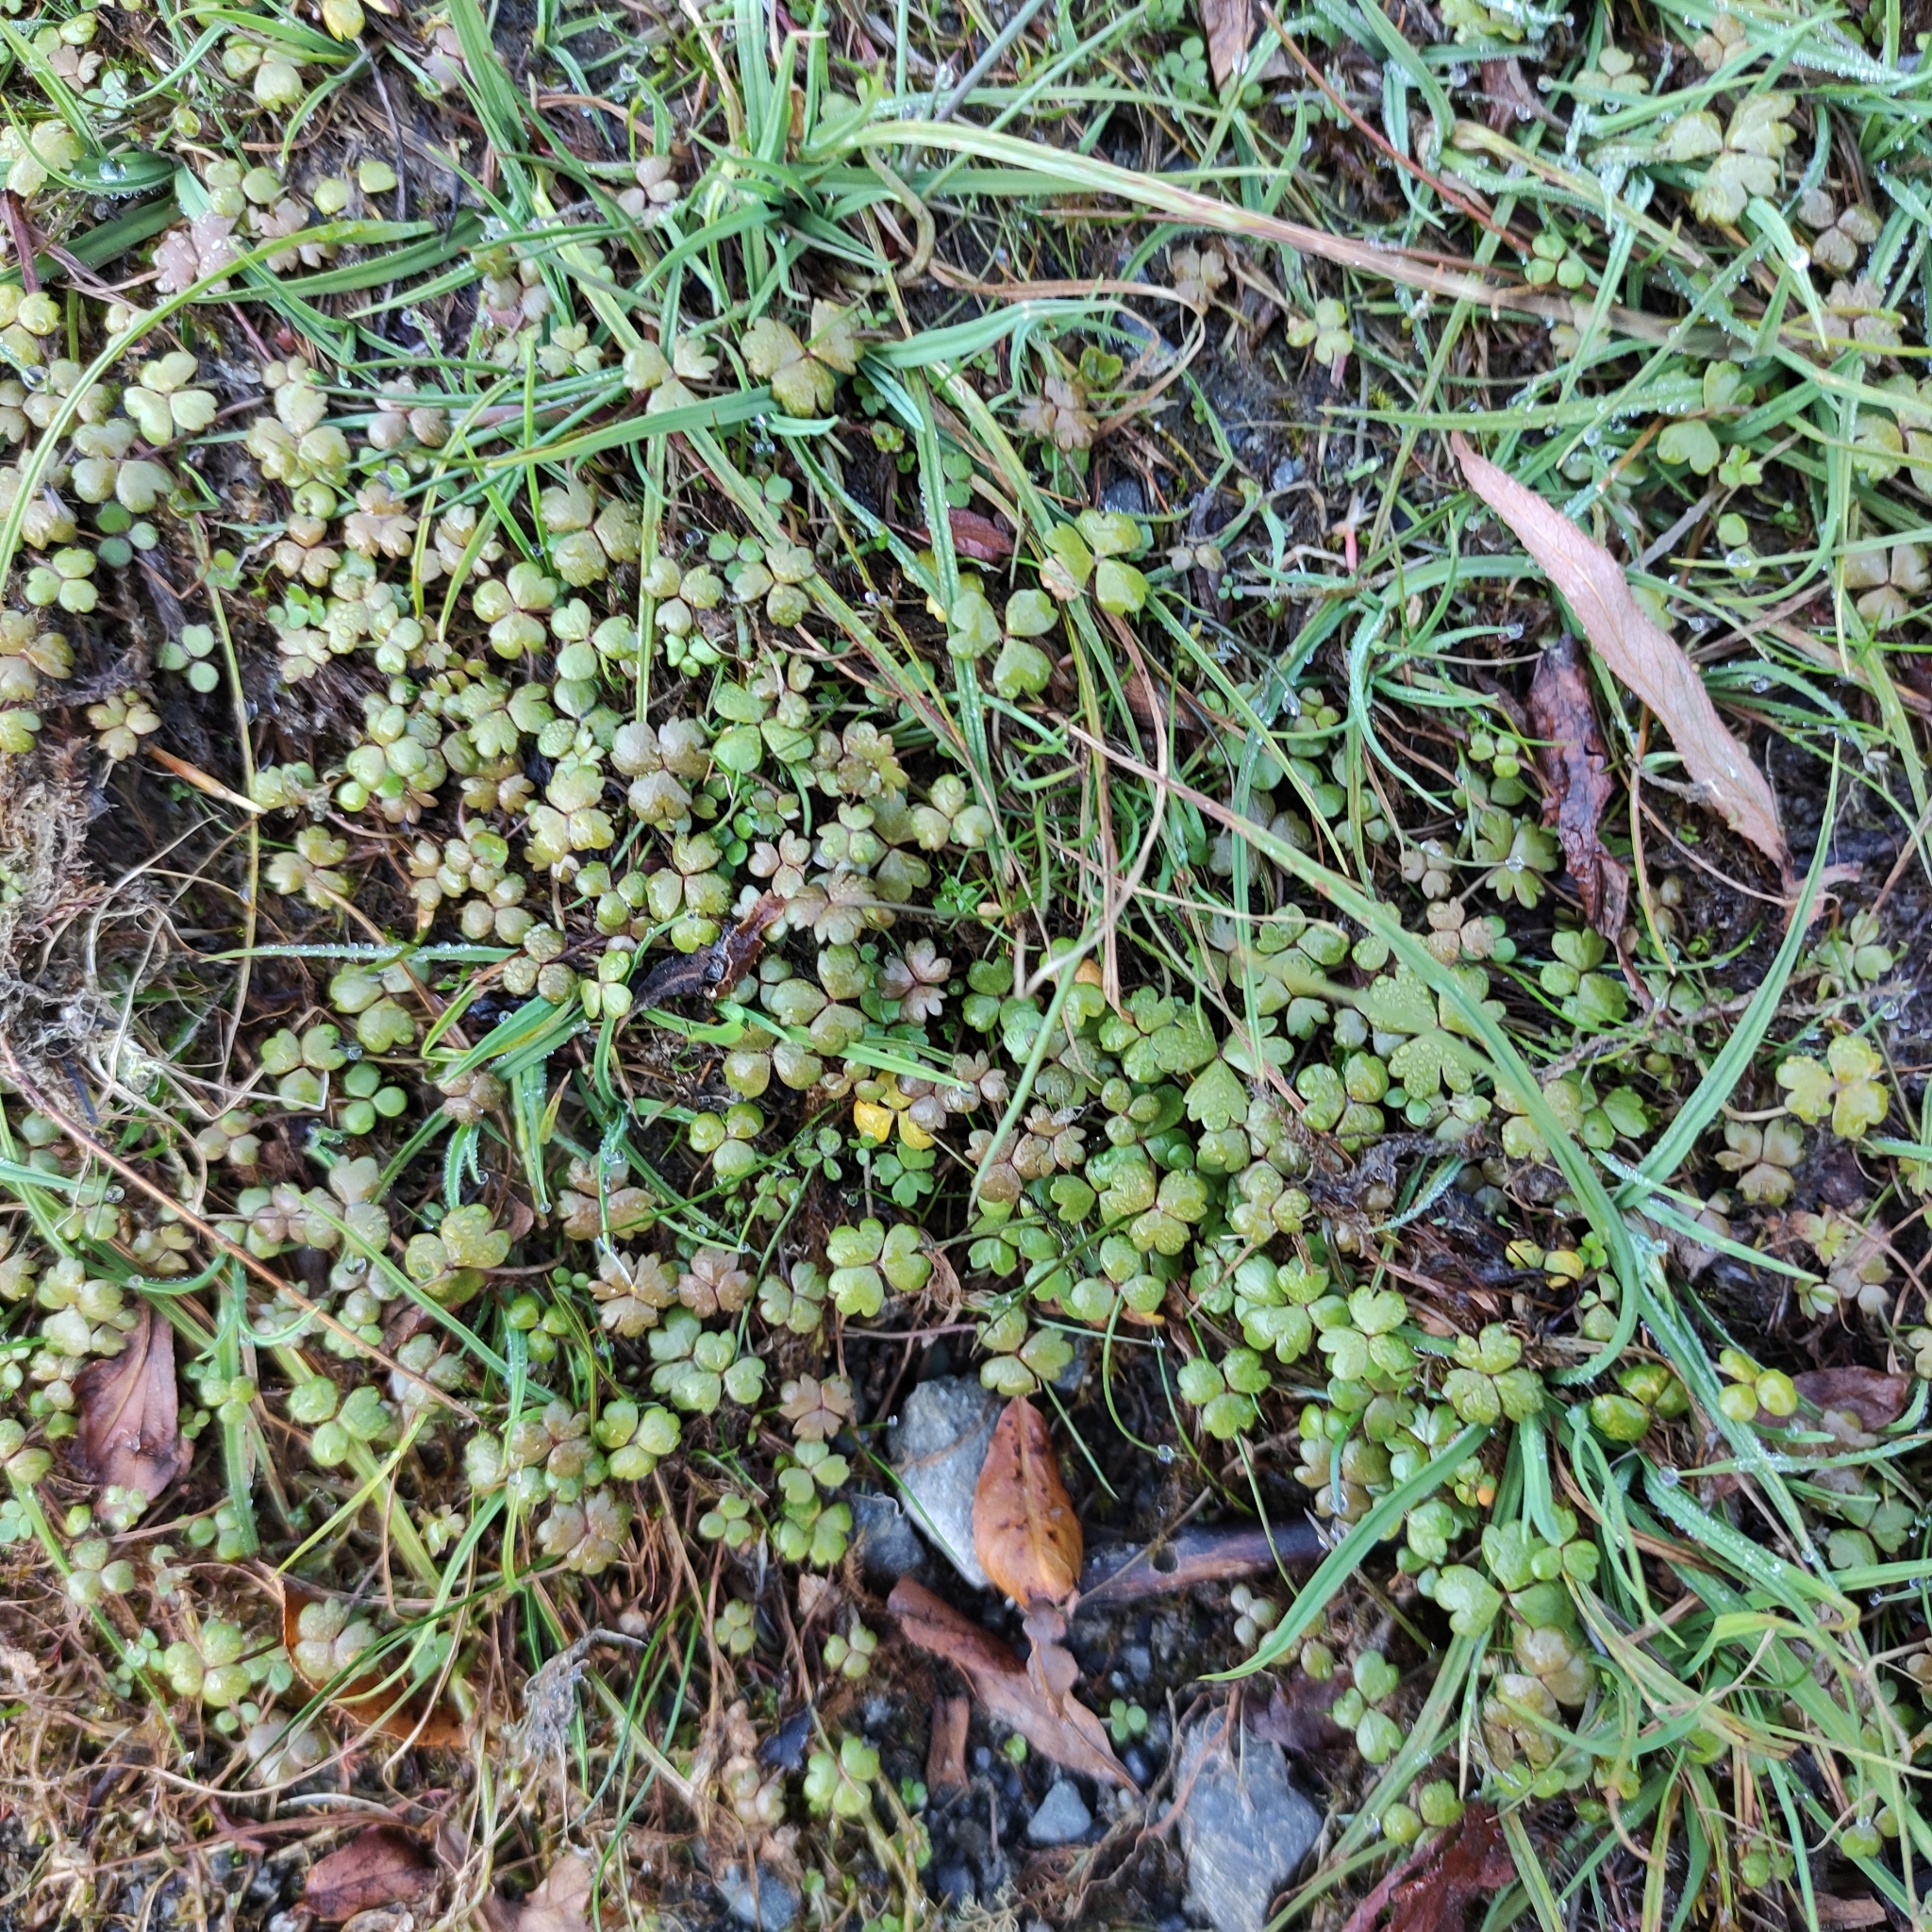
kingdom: Plantae
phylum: Tracheophyta
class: Magnoliopsida
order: Apiales
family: Araliaceae
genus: Hydrocotyle
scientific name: Hydrocotyle sulcata
